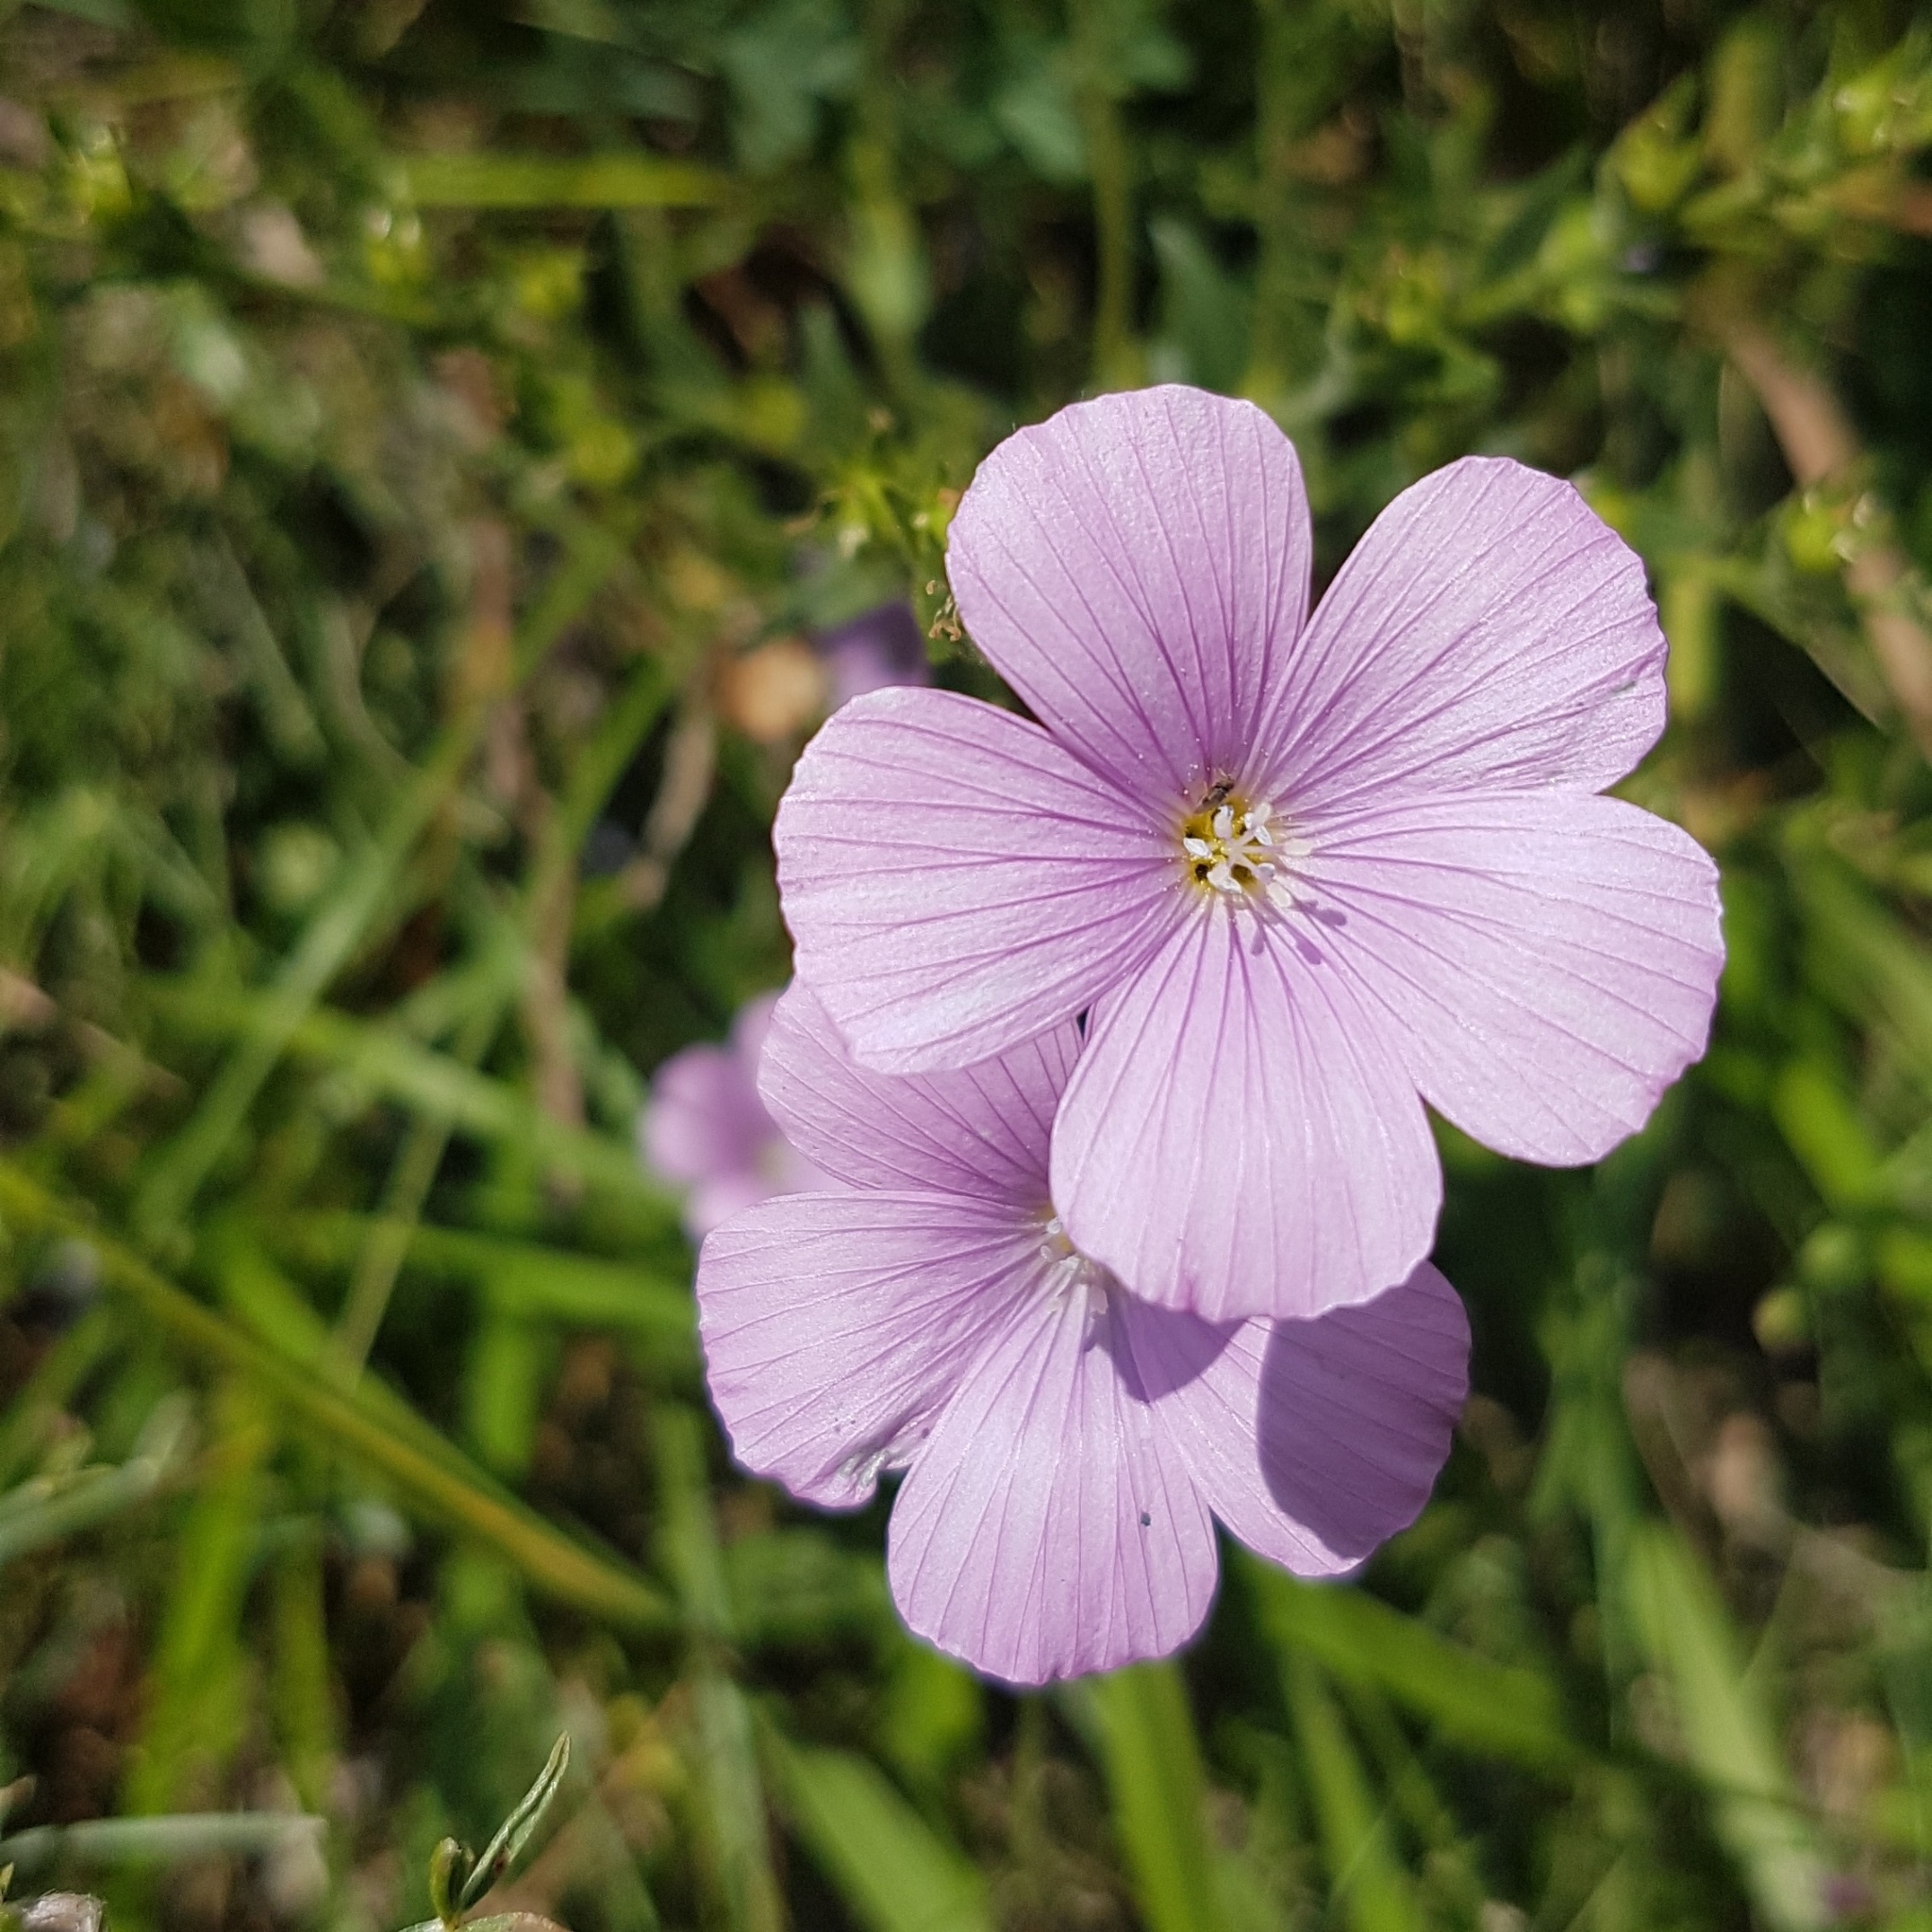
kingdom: Plantae
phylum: Tracheophyta
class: Magnoliopsida
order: Malpighiales
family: Linaceae
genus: Linum
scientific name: Linum viscosum
